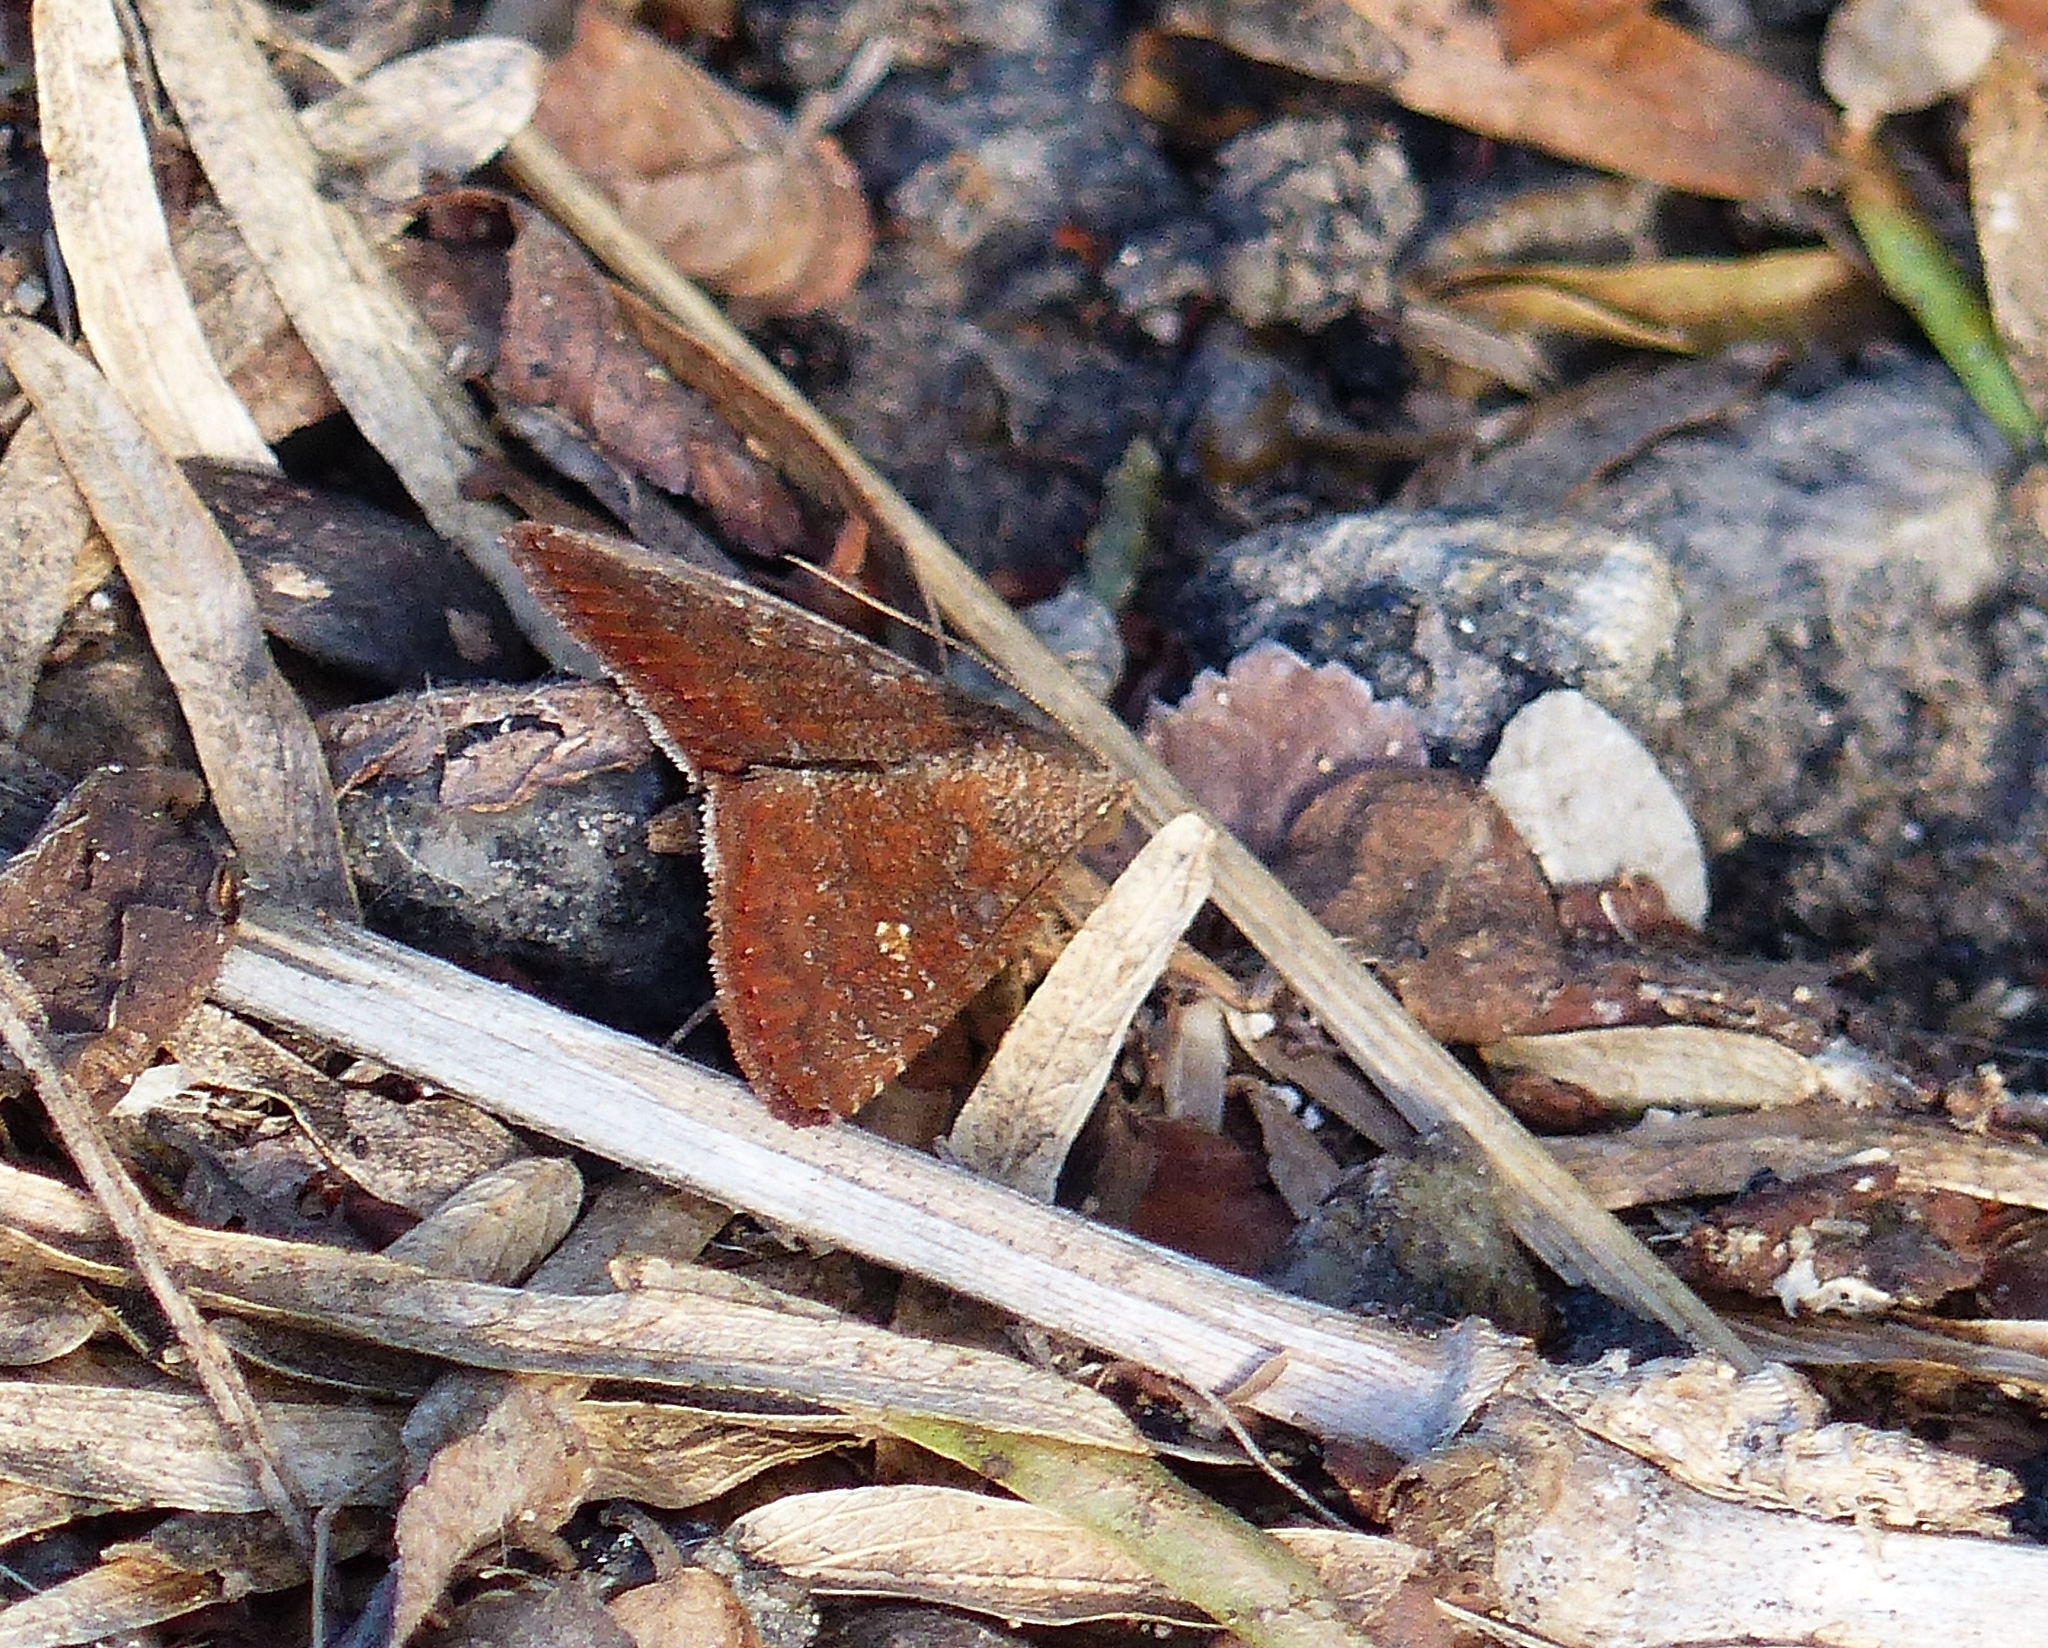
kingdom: Animalia
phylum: Arthropoda
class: Insecta
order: Lepidoptera
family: Noctuidae
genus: Amyna
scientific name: Amyna stricta
